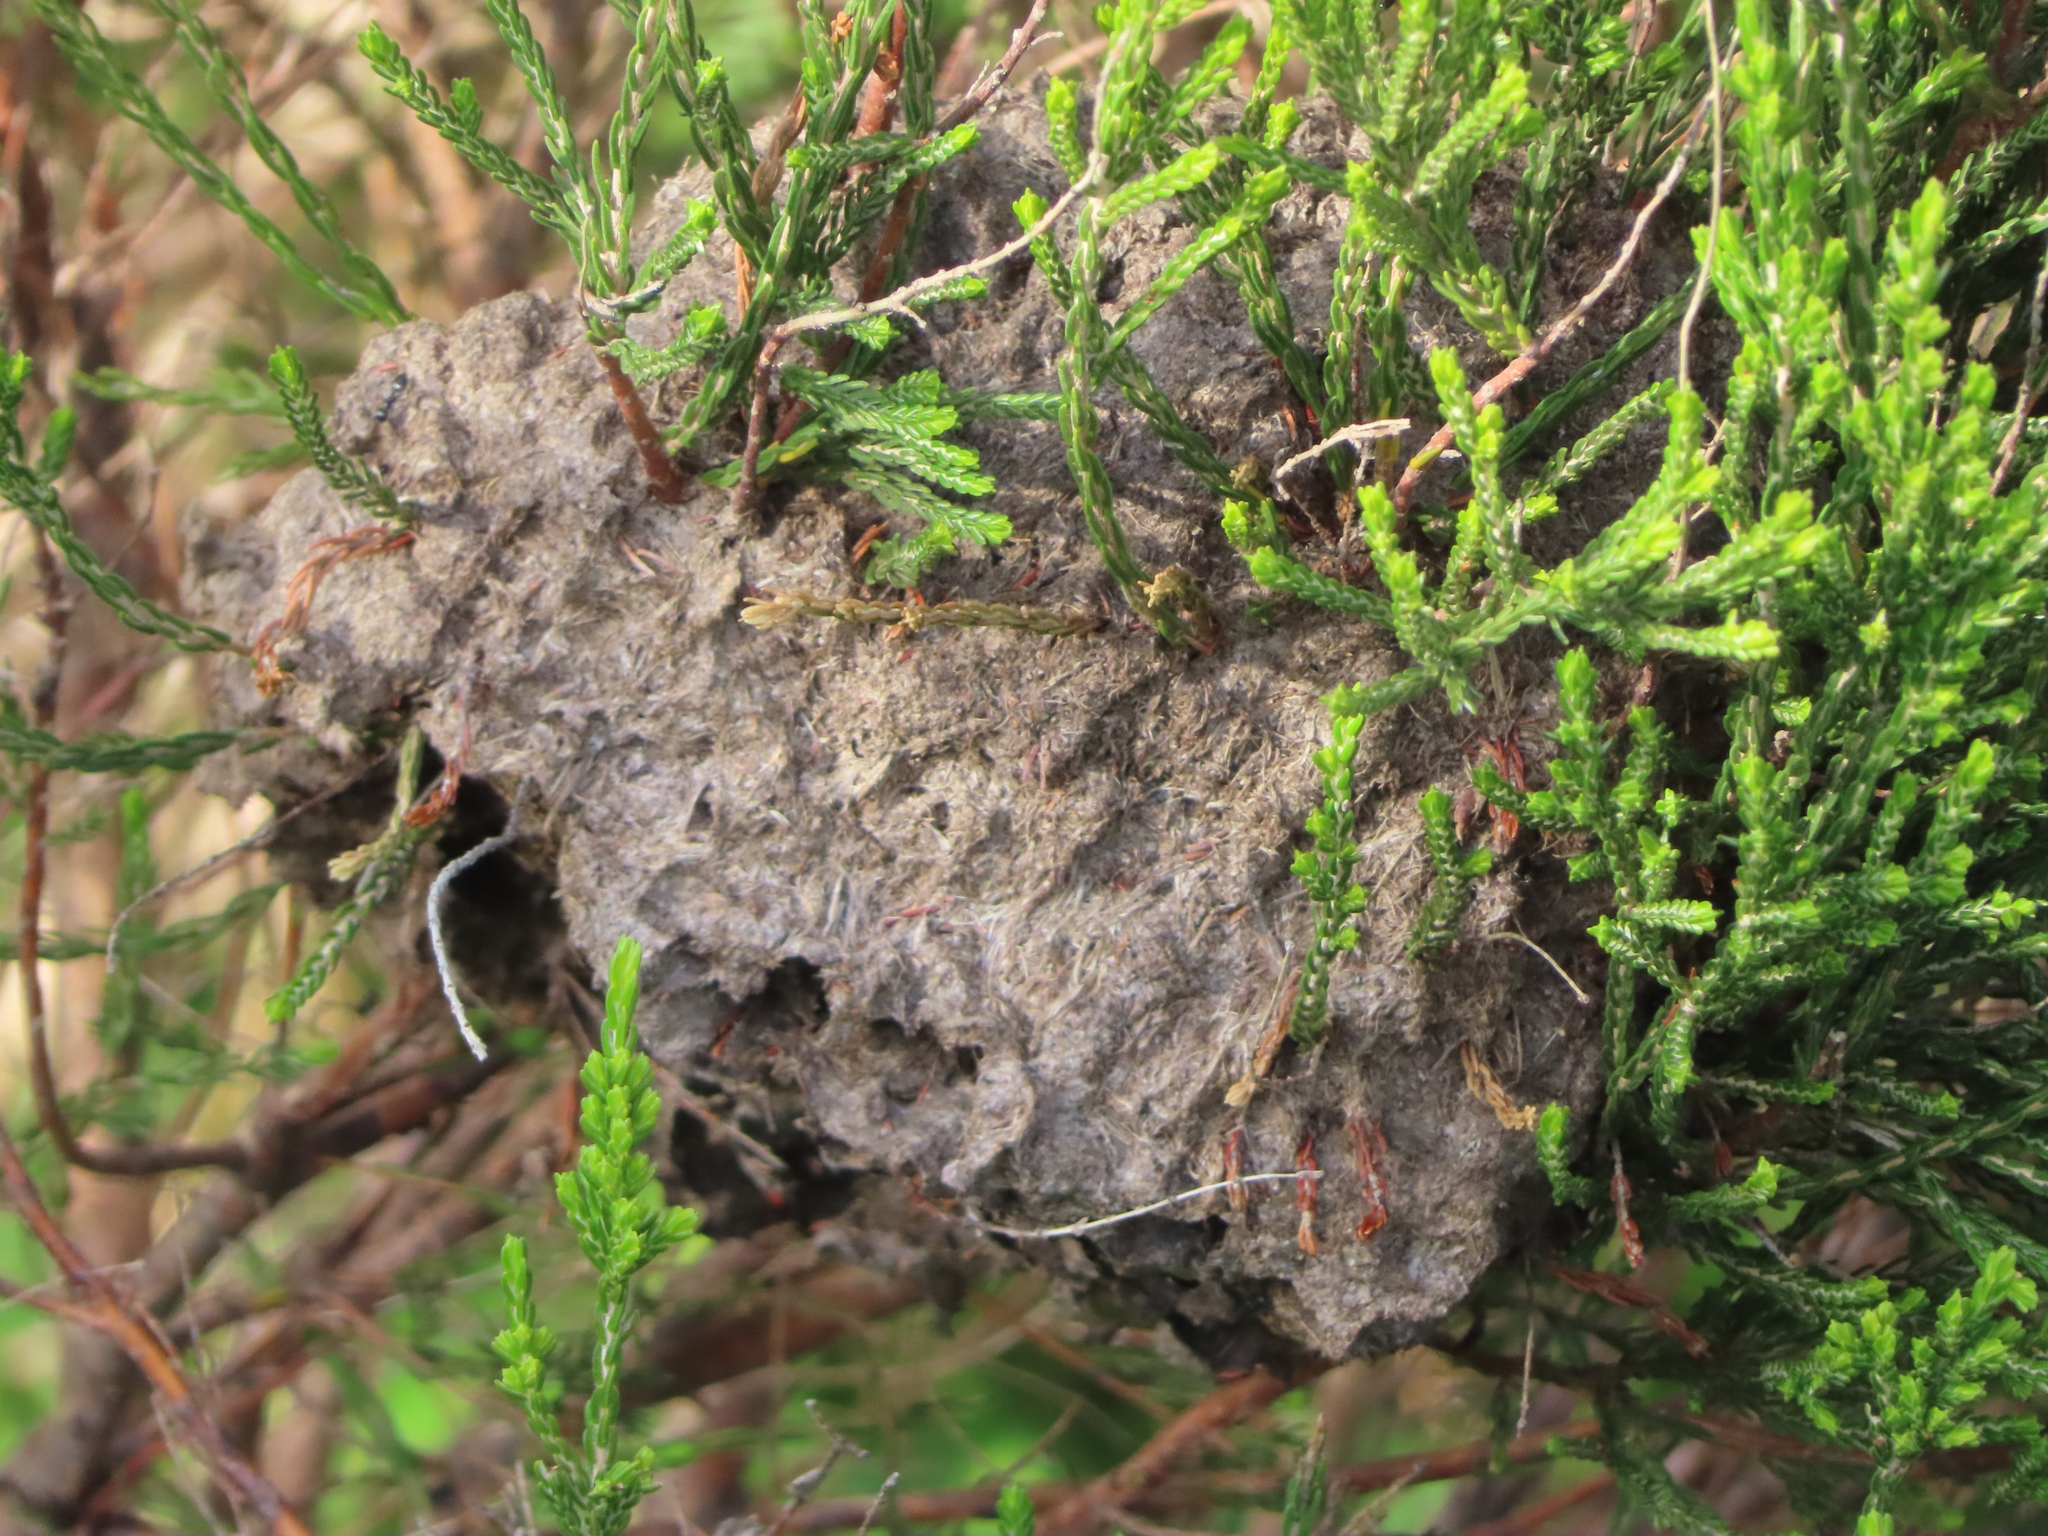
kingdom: Animalia
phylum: Arthropoda
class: Insecta
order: Hymenoptera
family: Formicidae
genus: Crematogaster
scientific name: Crematogaster peringueyi
